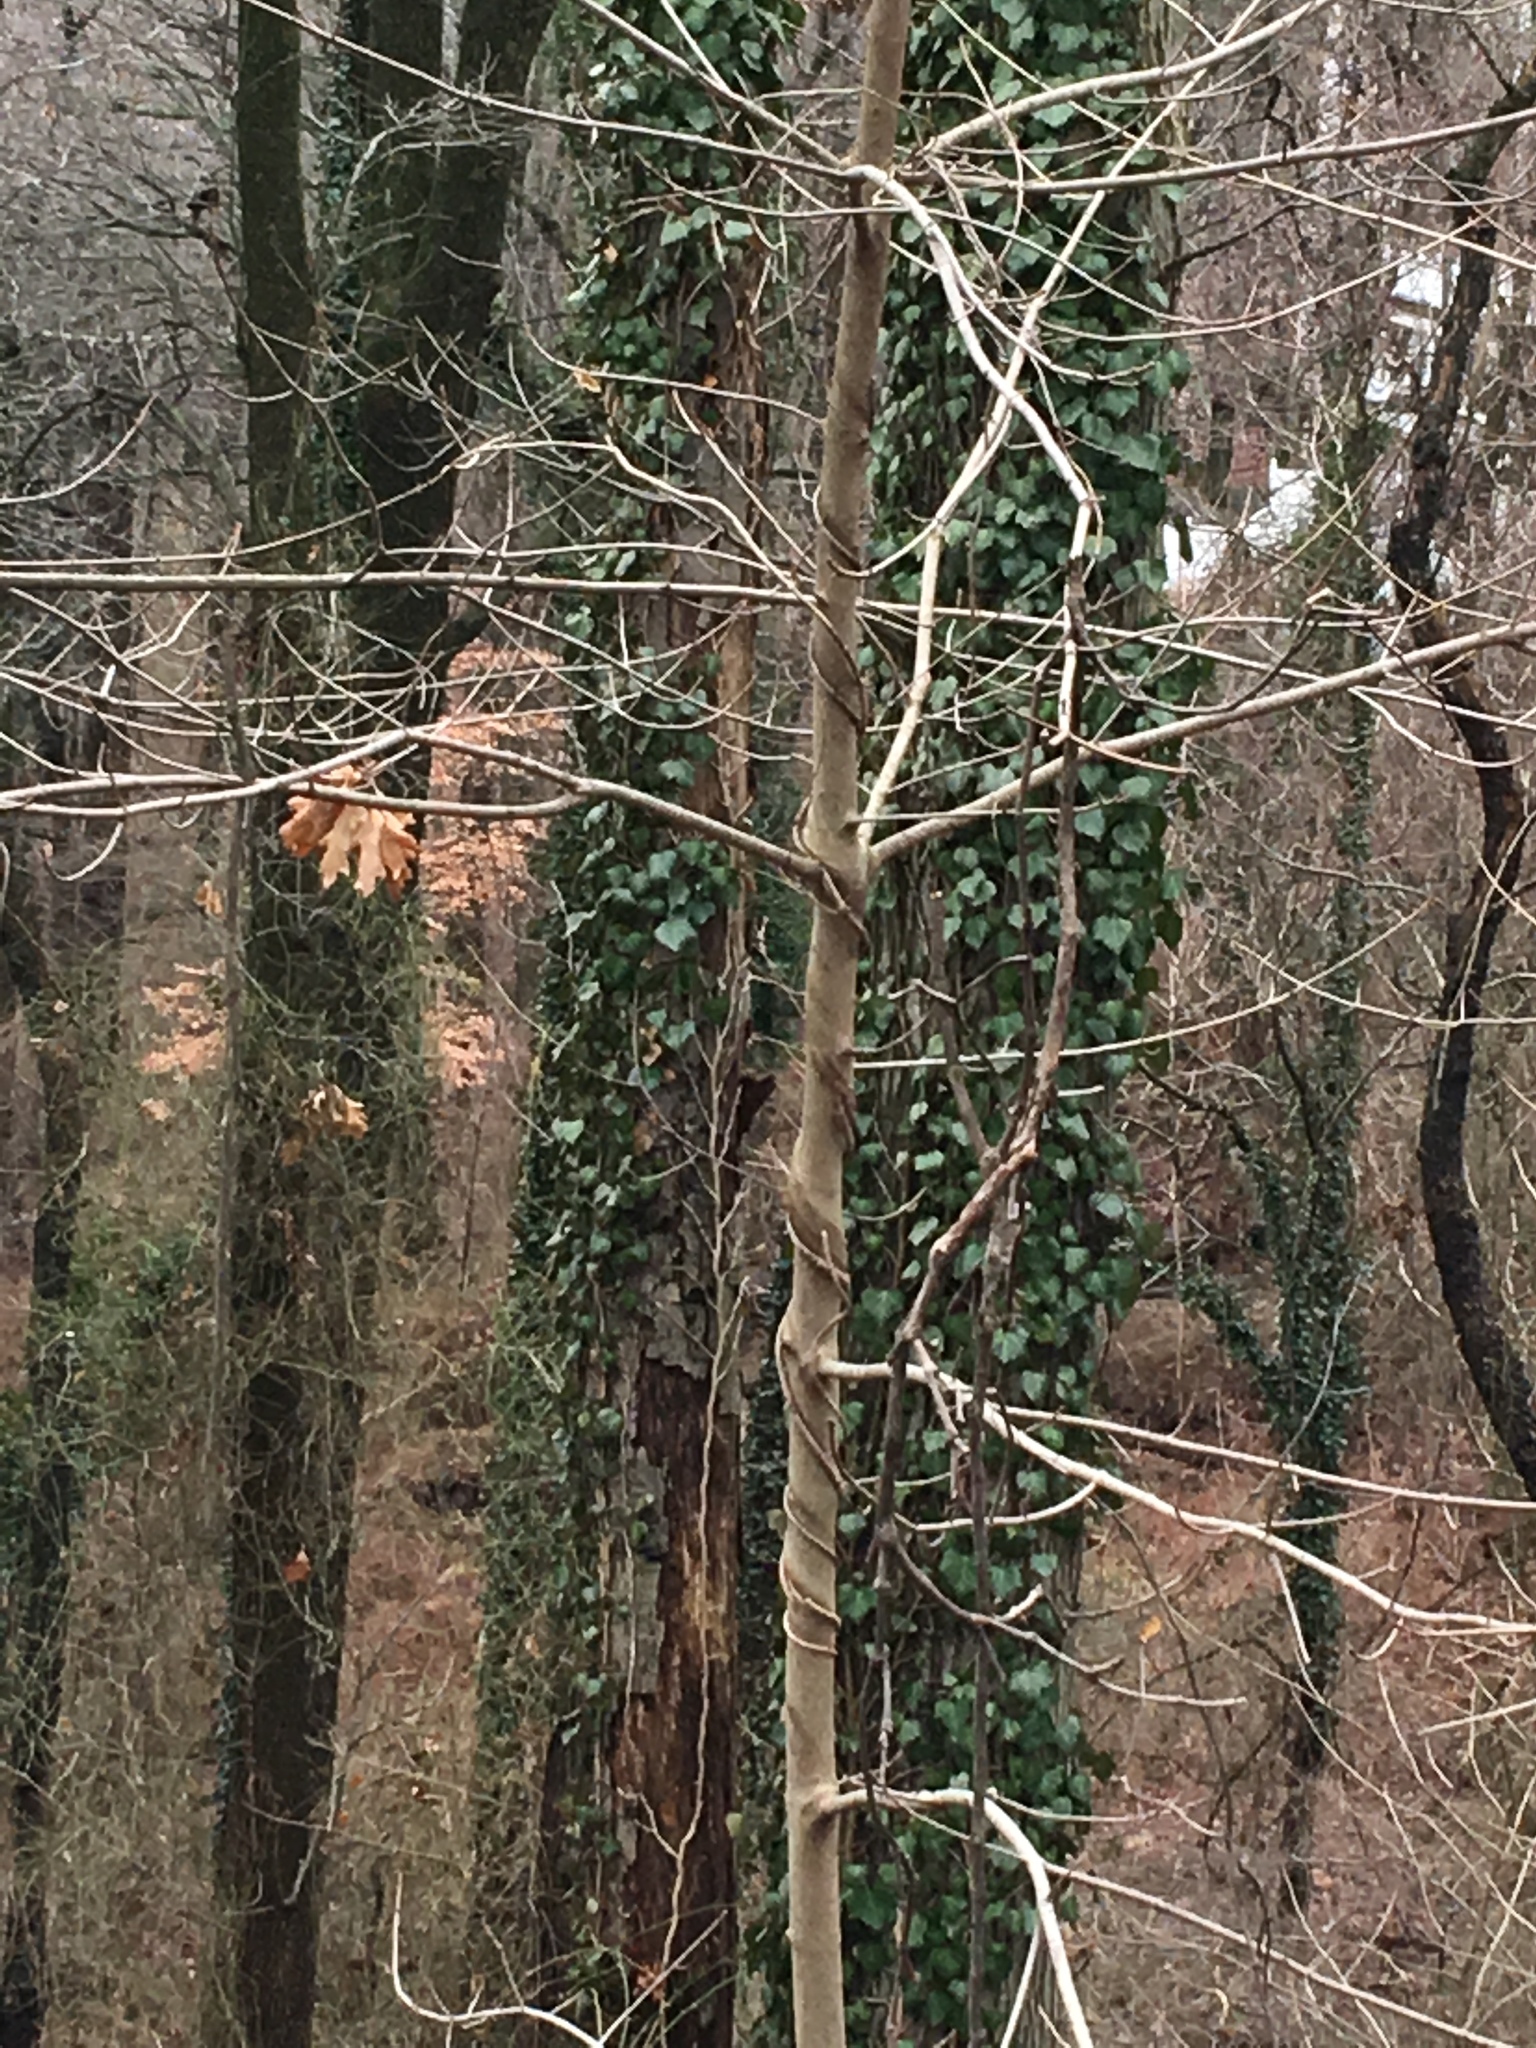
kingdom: Plantae
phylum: Tracheophyta
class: Magnoliopsida
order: Apiales
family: Araliaceae
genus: Hedera
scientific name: Hedera helix
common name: Ivy
